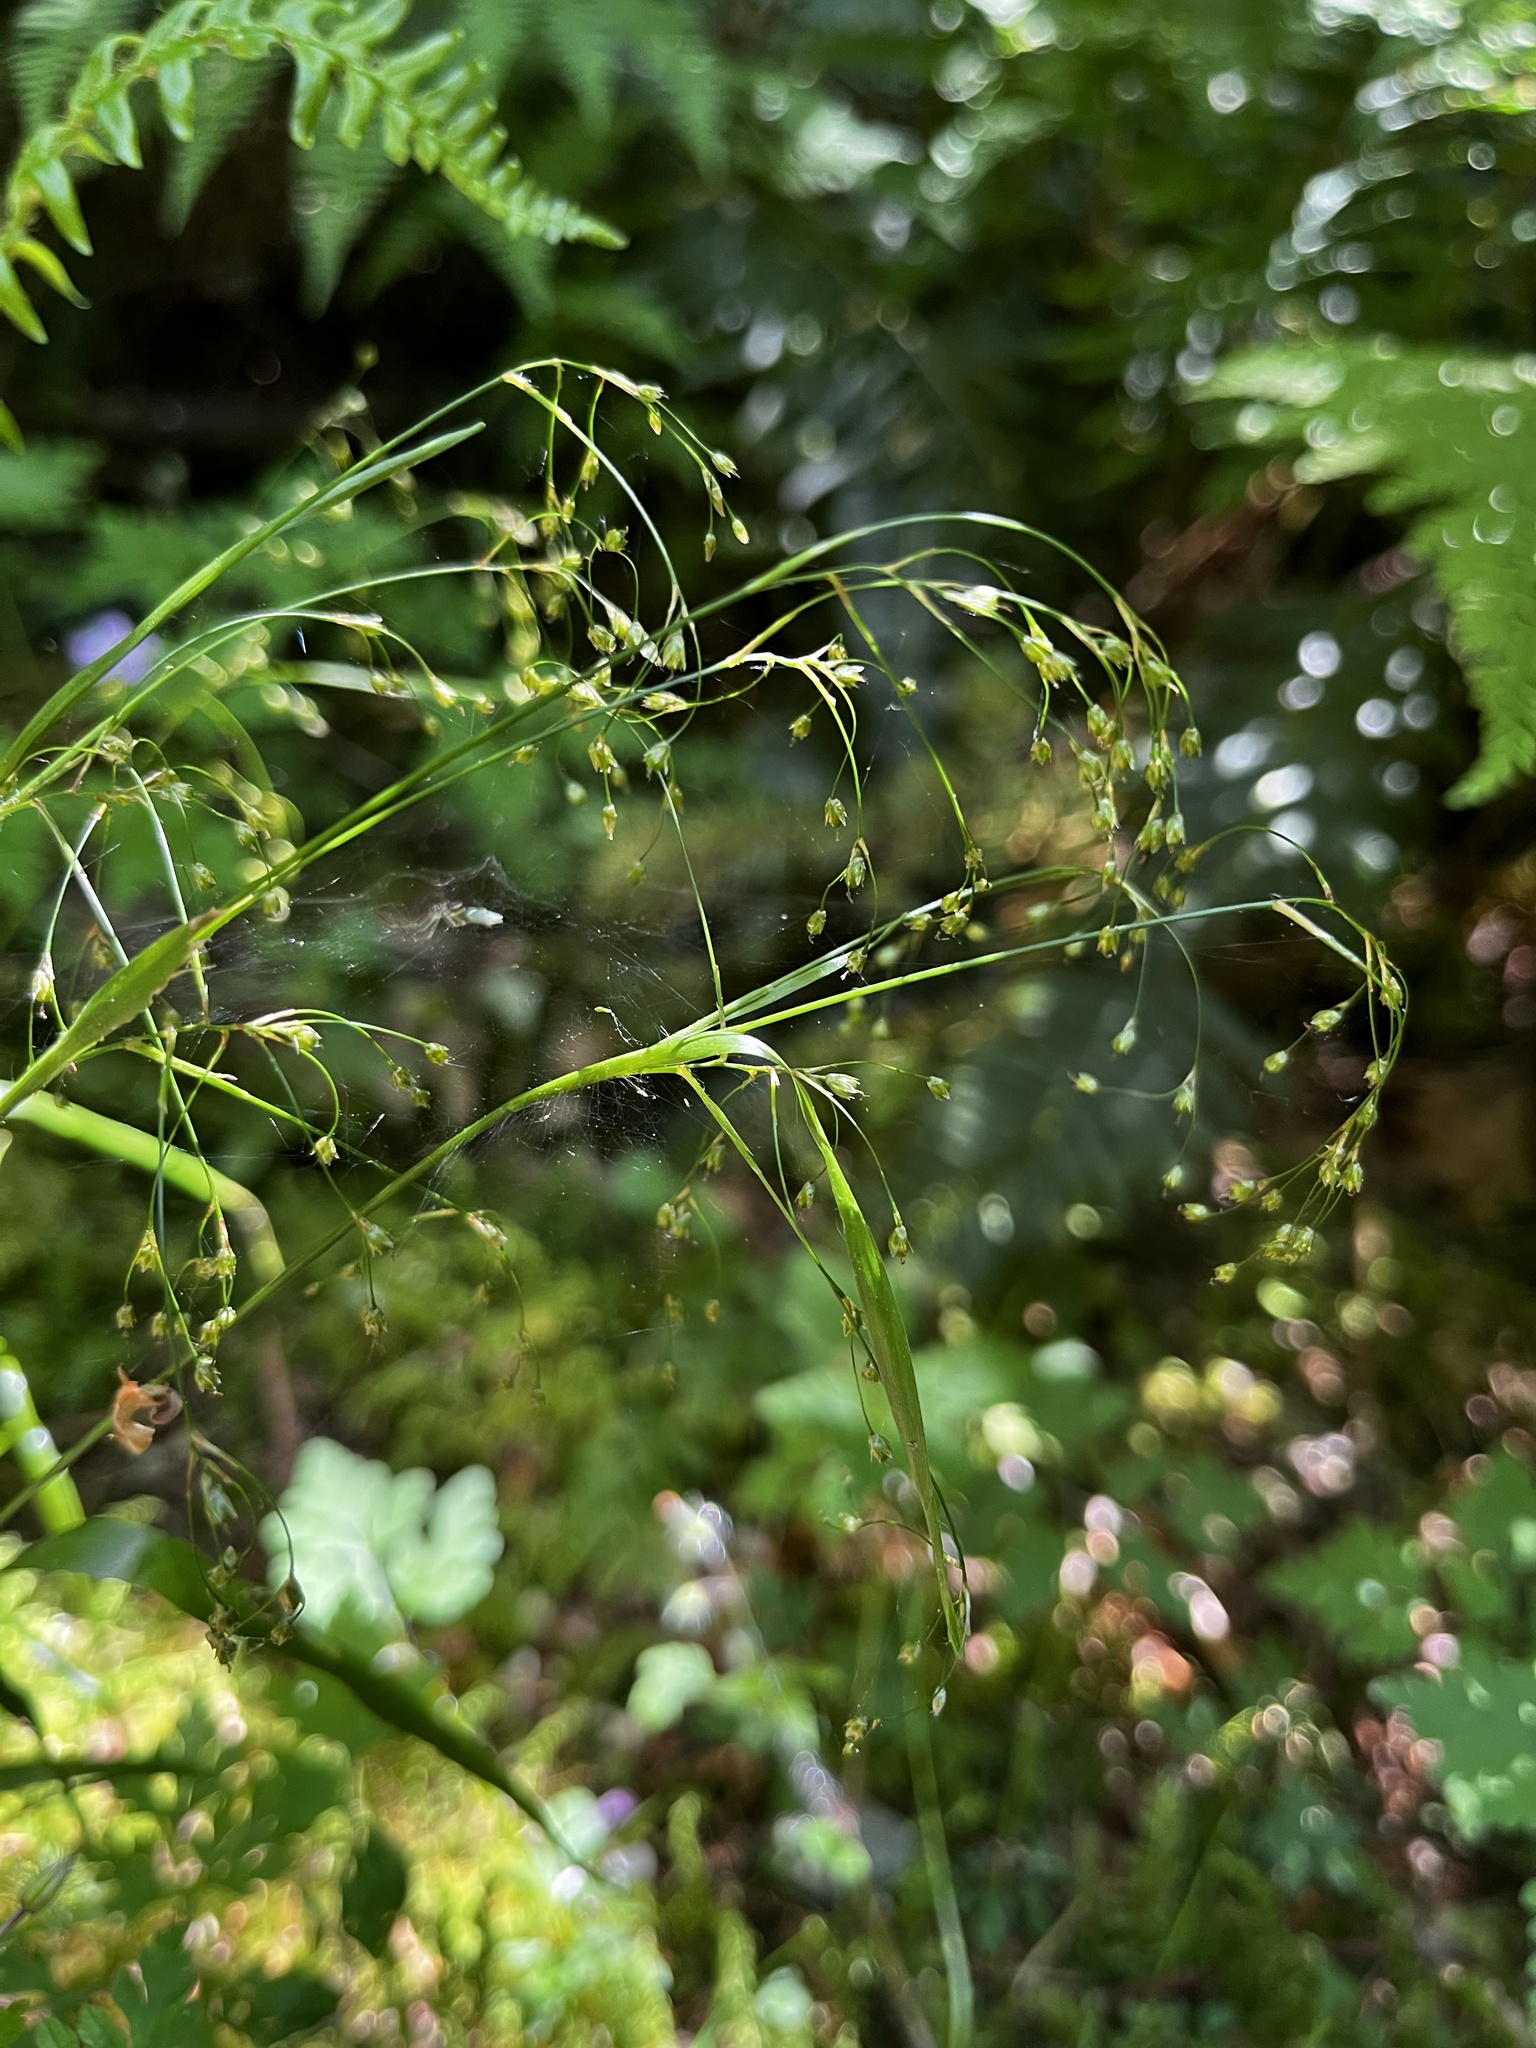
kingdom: Plantae
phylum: Tracheophyta
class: Liliopsida
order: Poales
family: Juncaceae
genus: Luzula
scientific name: Luzula parviflora
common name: Millet woodrush
